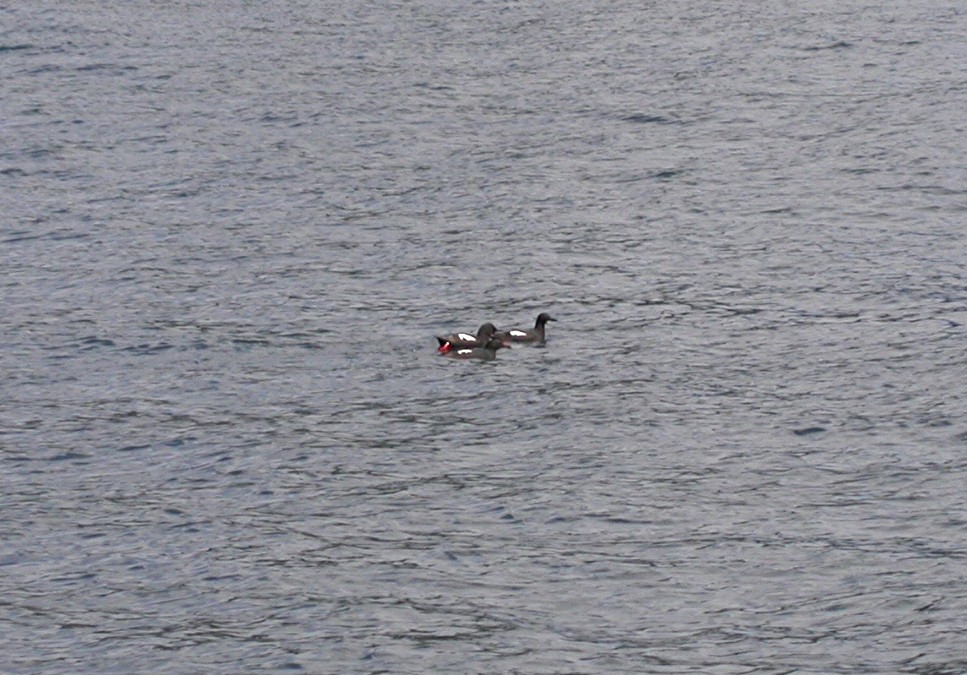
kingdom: Animalia
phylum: Chordata
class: Aves
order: Charadriiformes
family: Alcidae
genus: Cepphus
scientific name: Cepphus columba
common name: Pigeon guillemot
